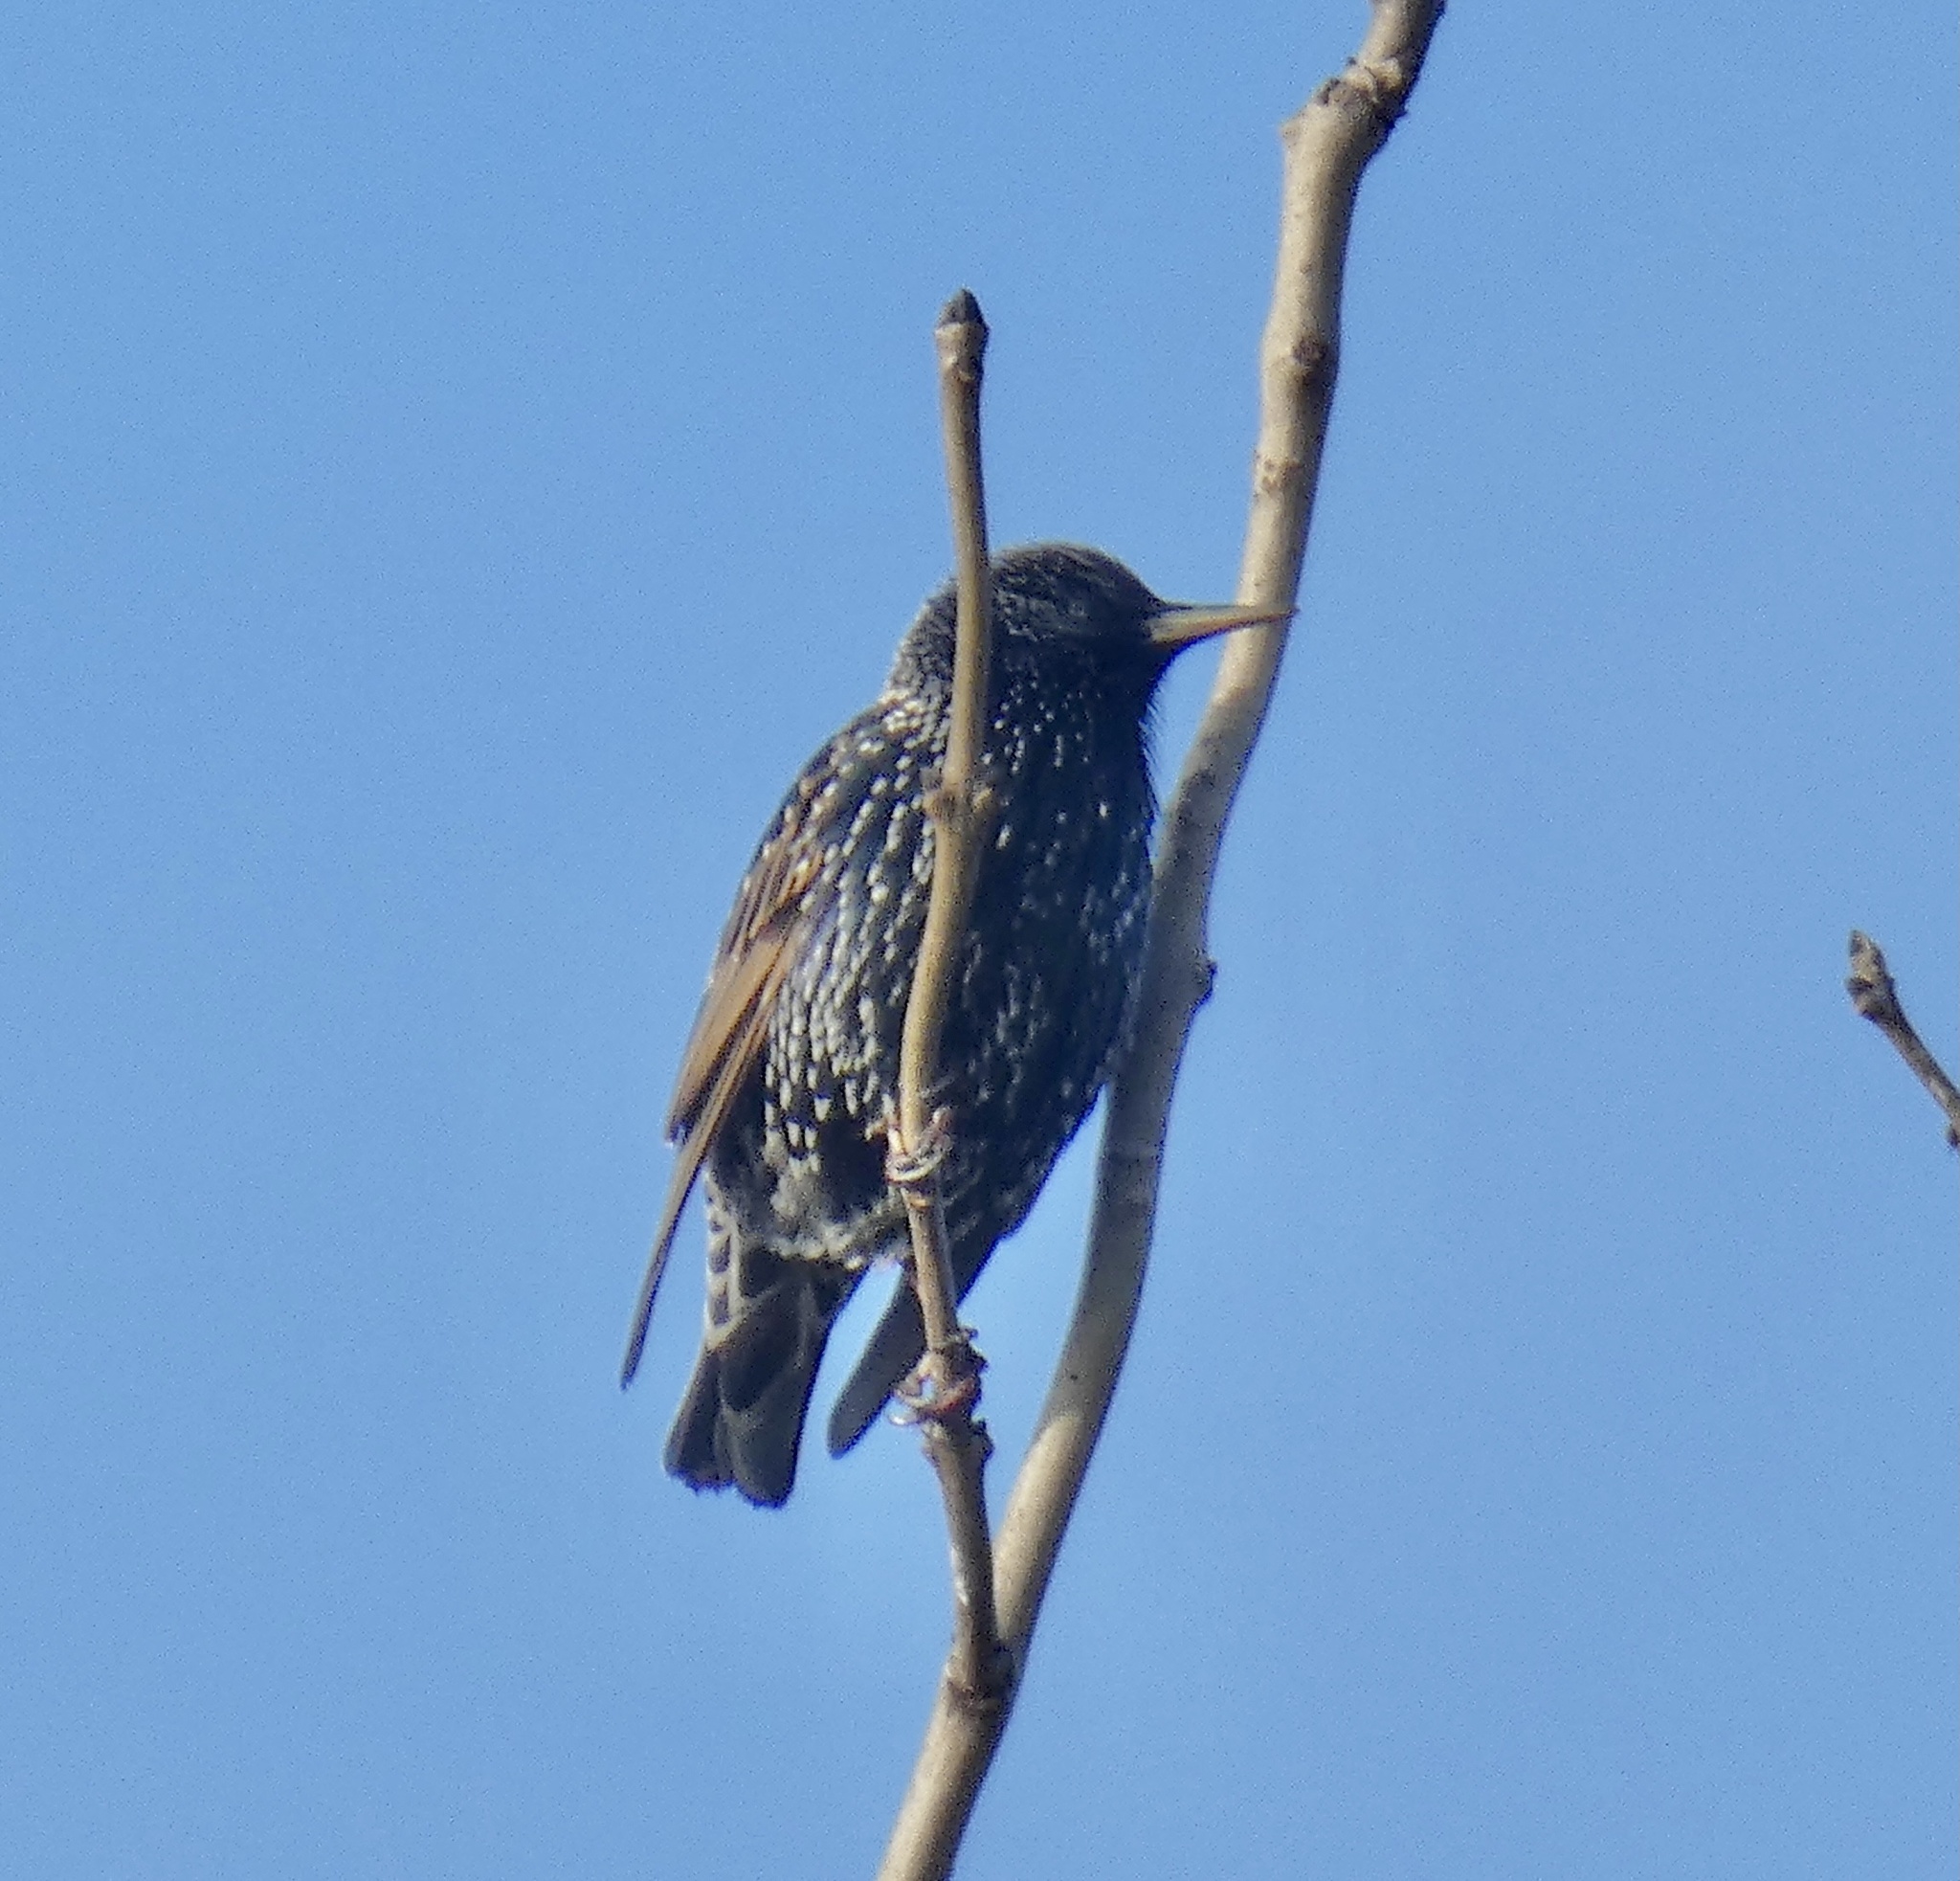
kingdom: Animalia
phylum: Chordata
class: Aves
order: Passeriformes
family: Sturnidae
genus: Sturnus
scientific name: Sturnus vulgaris
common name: Common starling
